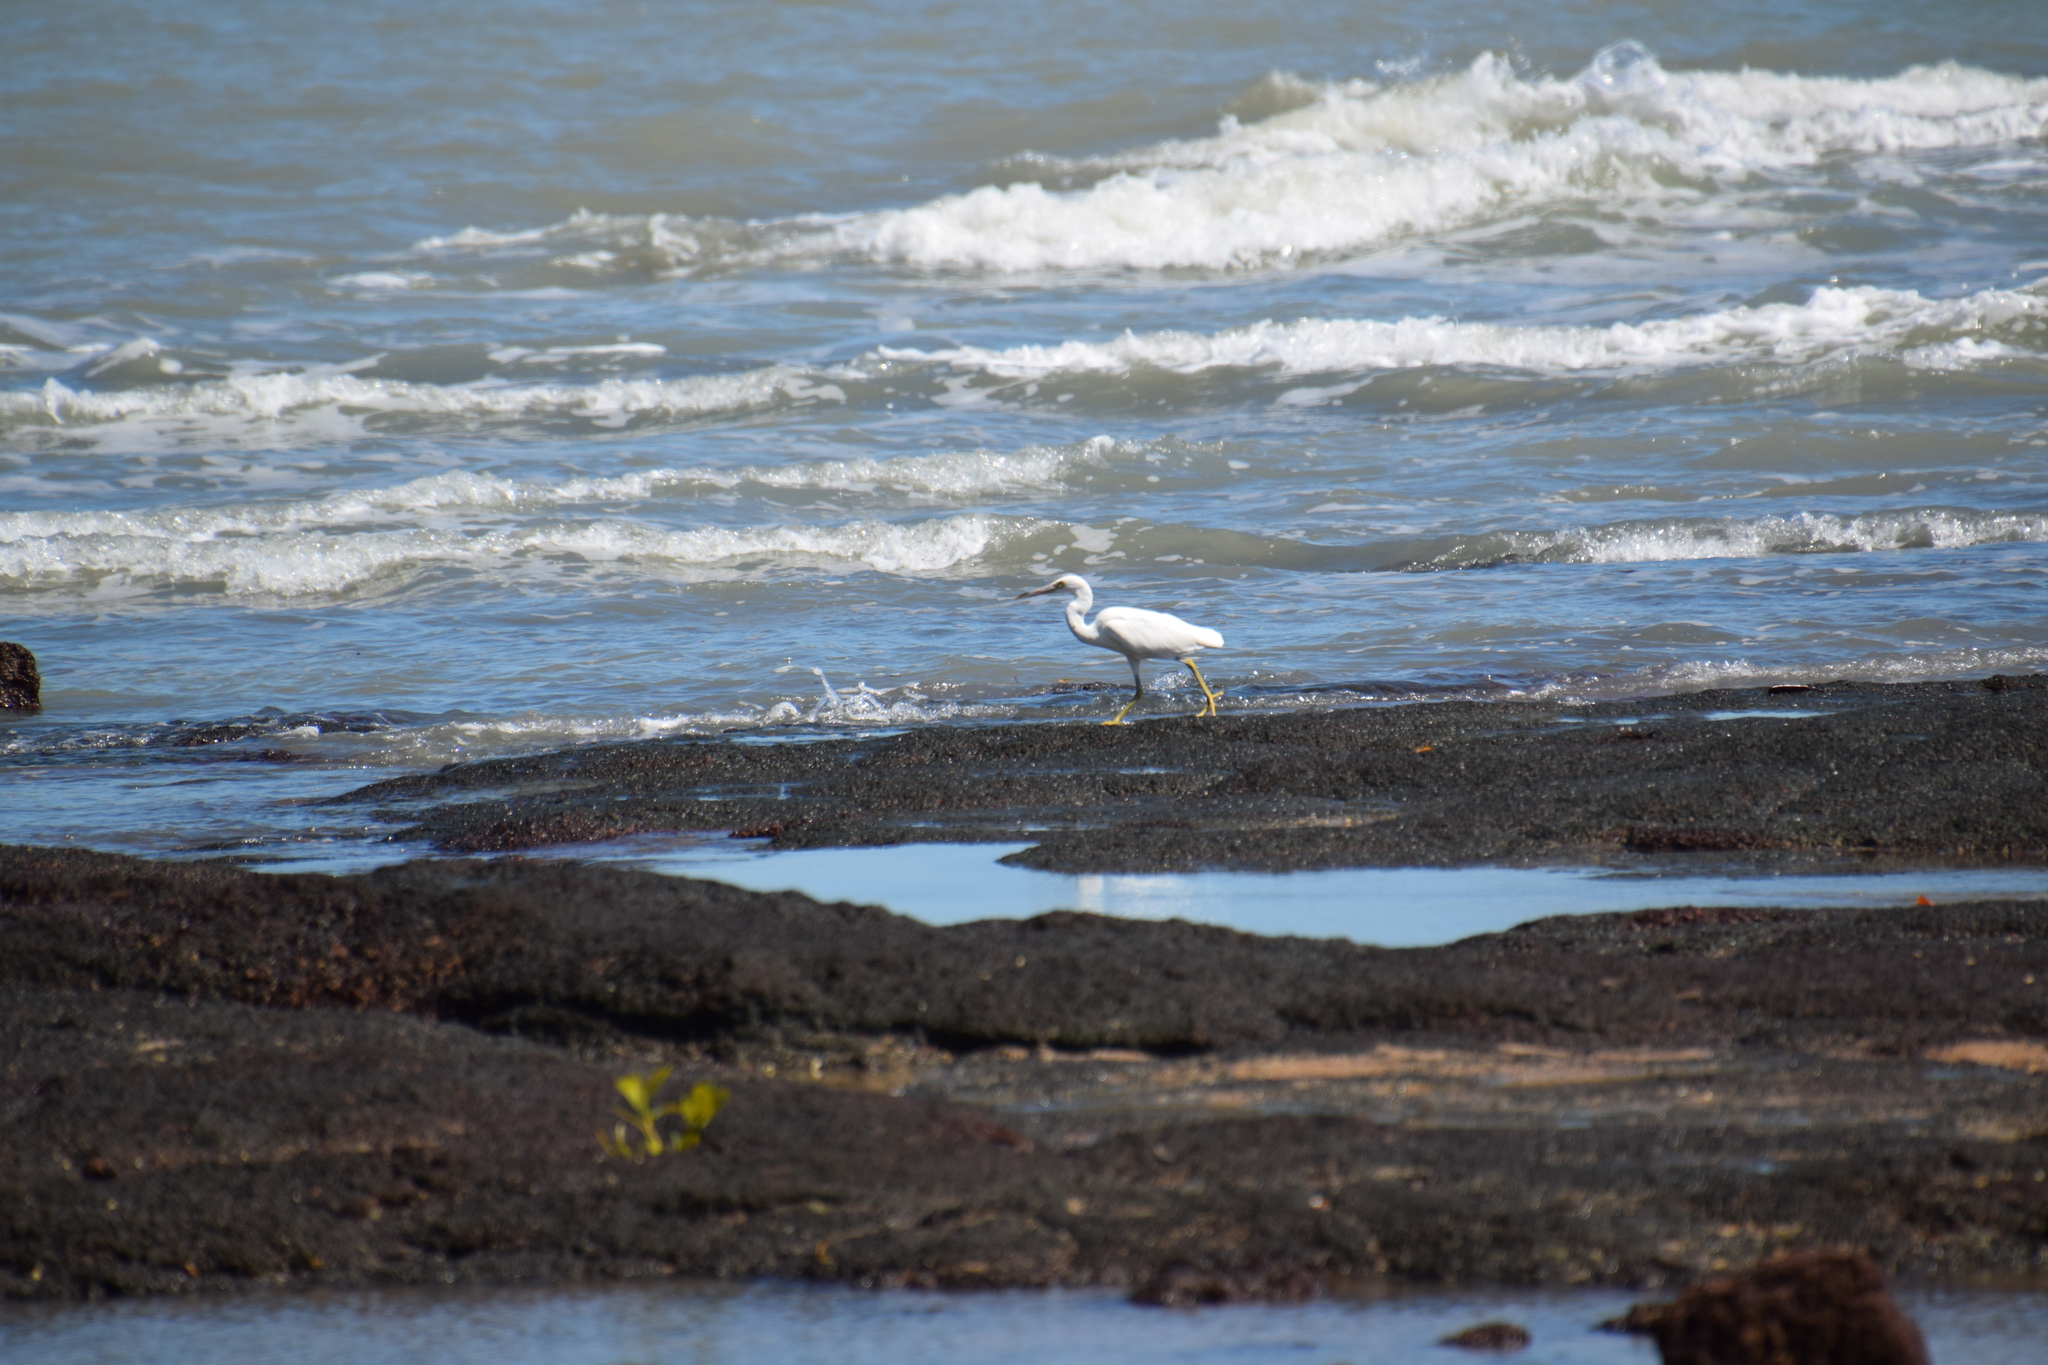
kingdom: Animalia
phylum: Chordata
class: Aves
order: Pelecaniformes
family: Ardeidae
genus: Egretta
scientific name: Egretta sacra
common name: Pacific reef heron
